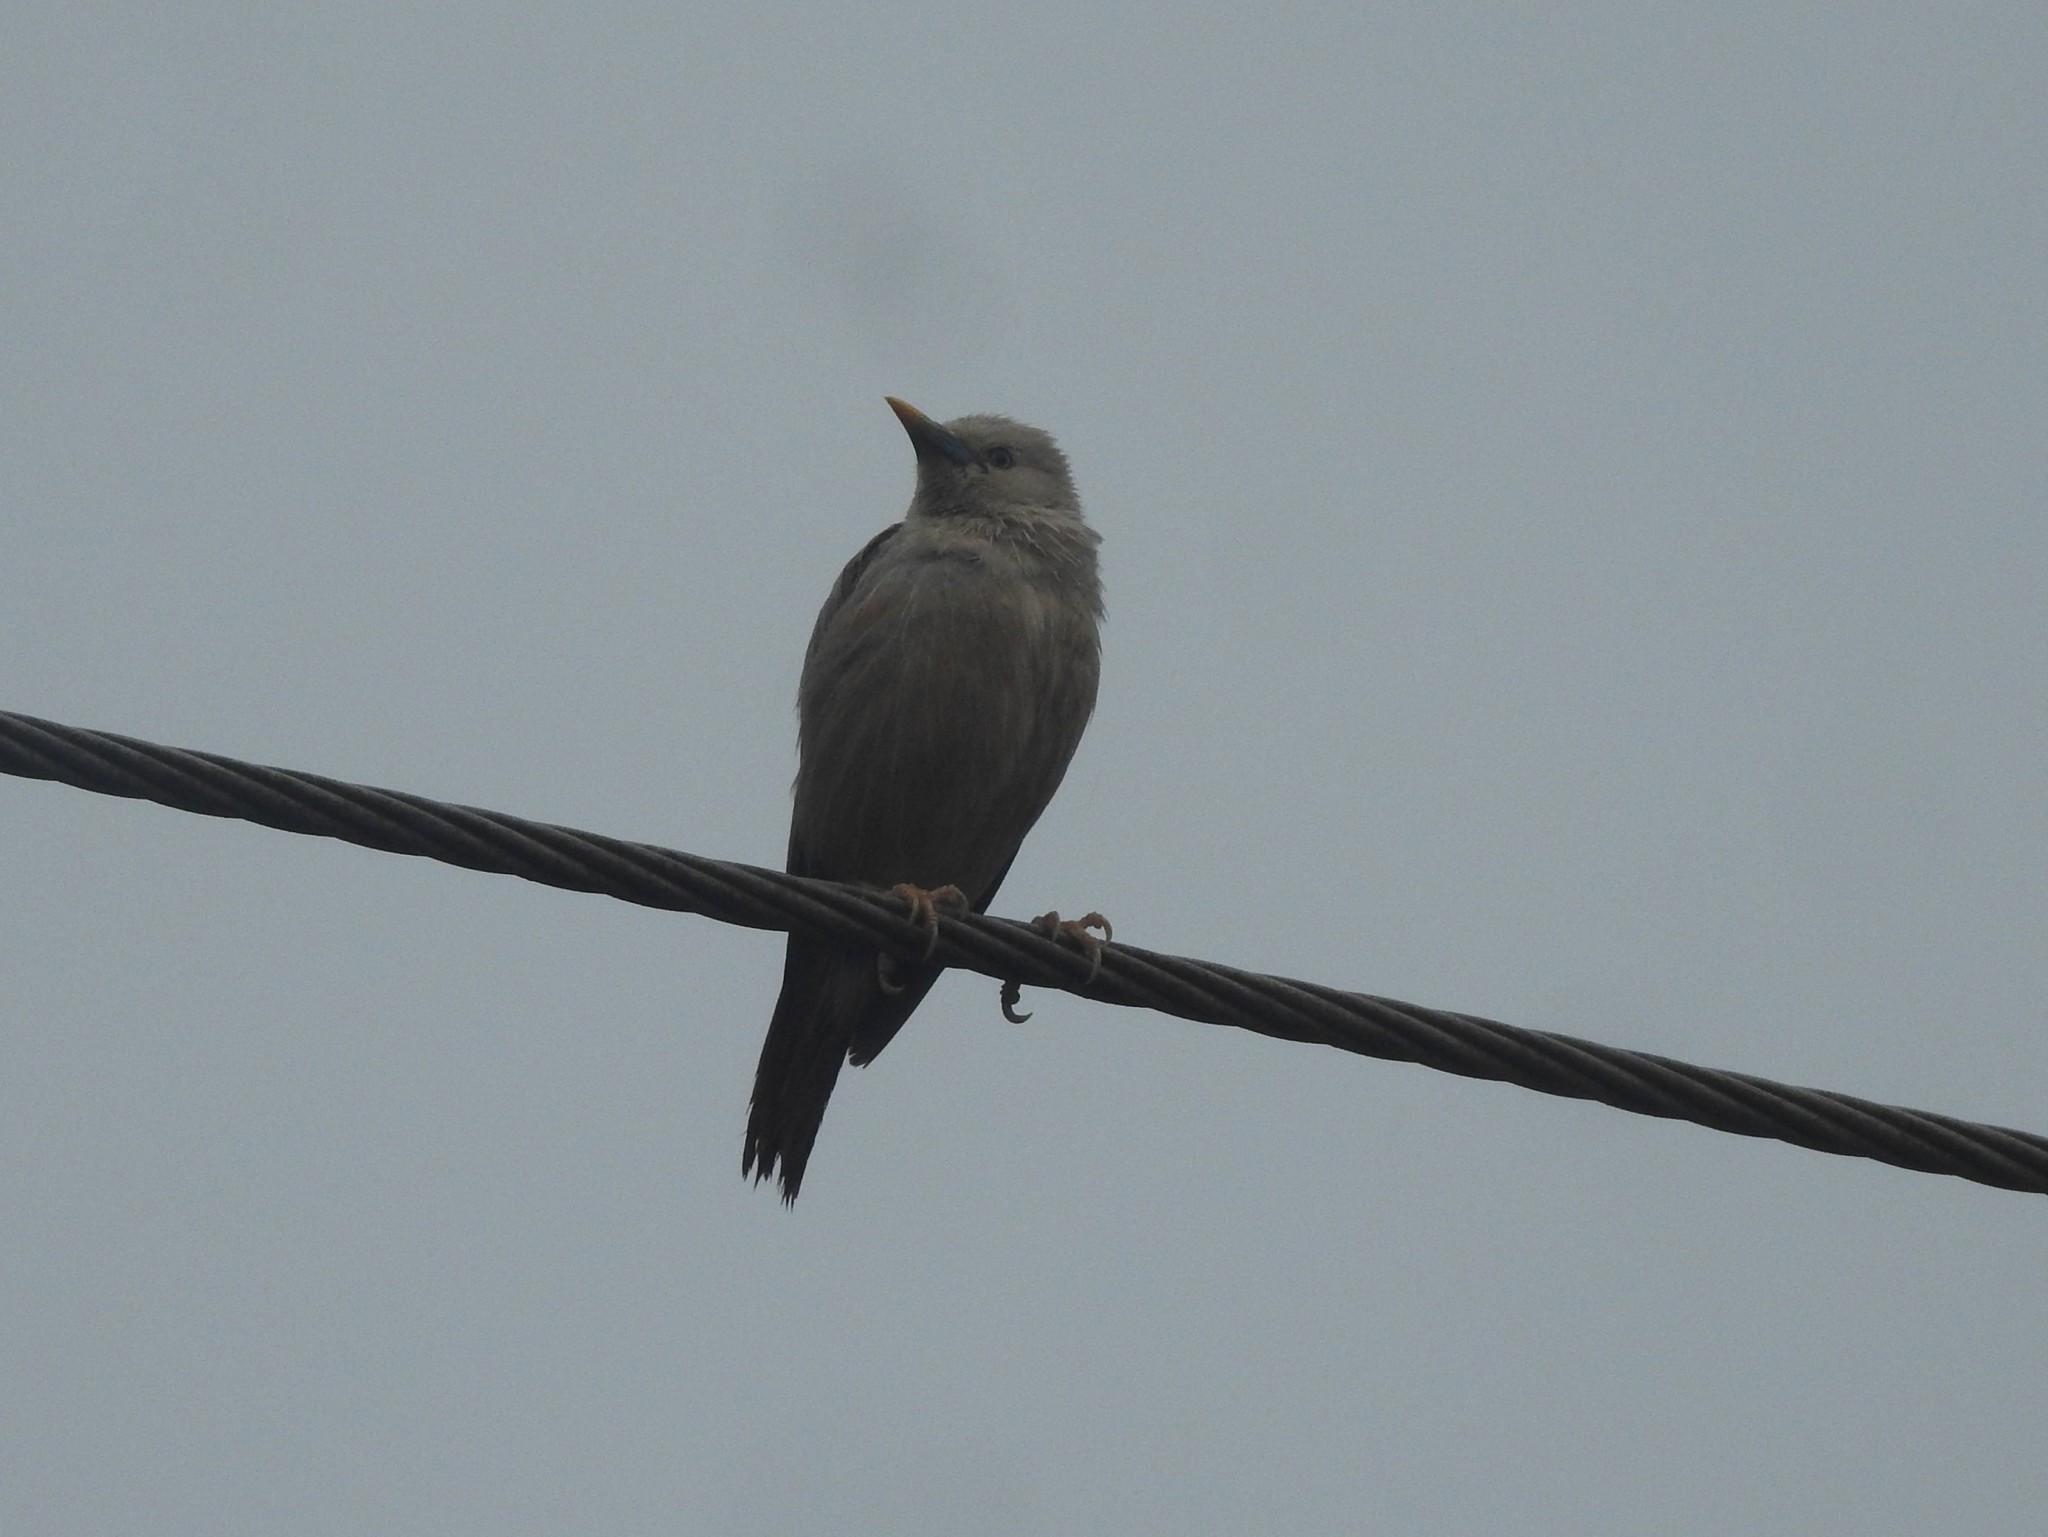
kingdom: Animalia
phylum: Chordata
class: Aves
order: Passeriformes
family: Sturnidae
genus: Sturnia
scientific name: Sturnia blythii
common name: Malabar starling
